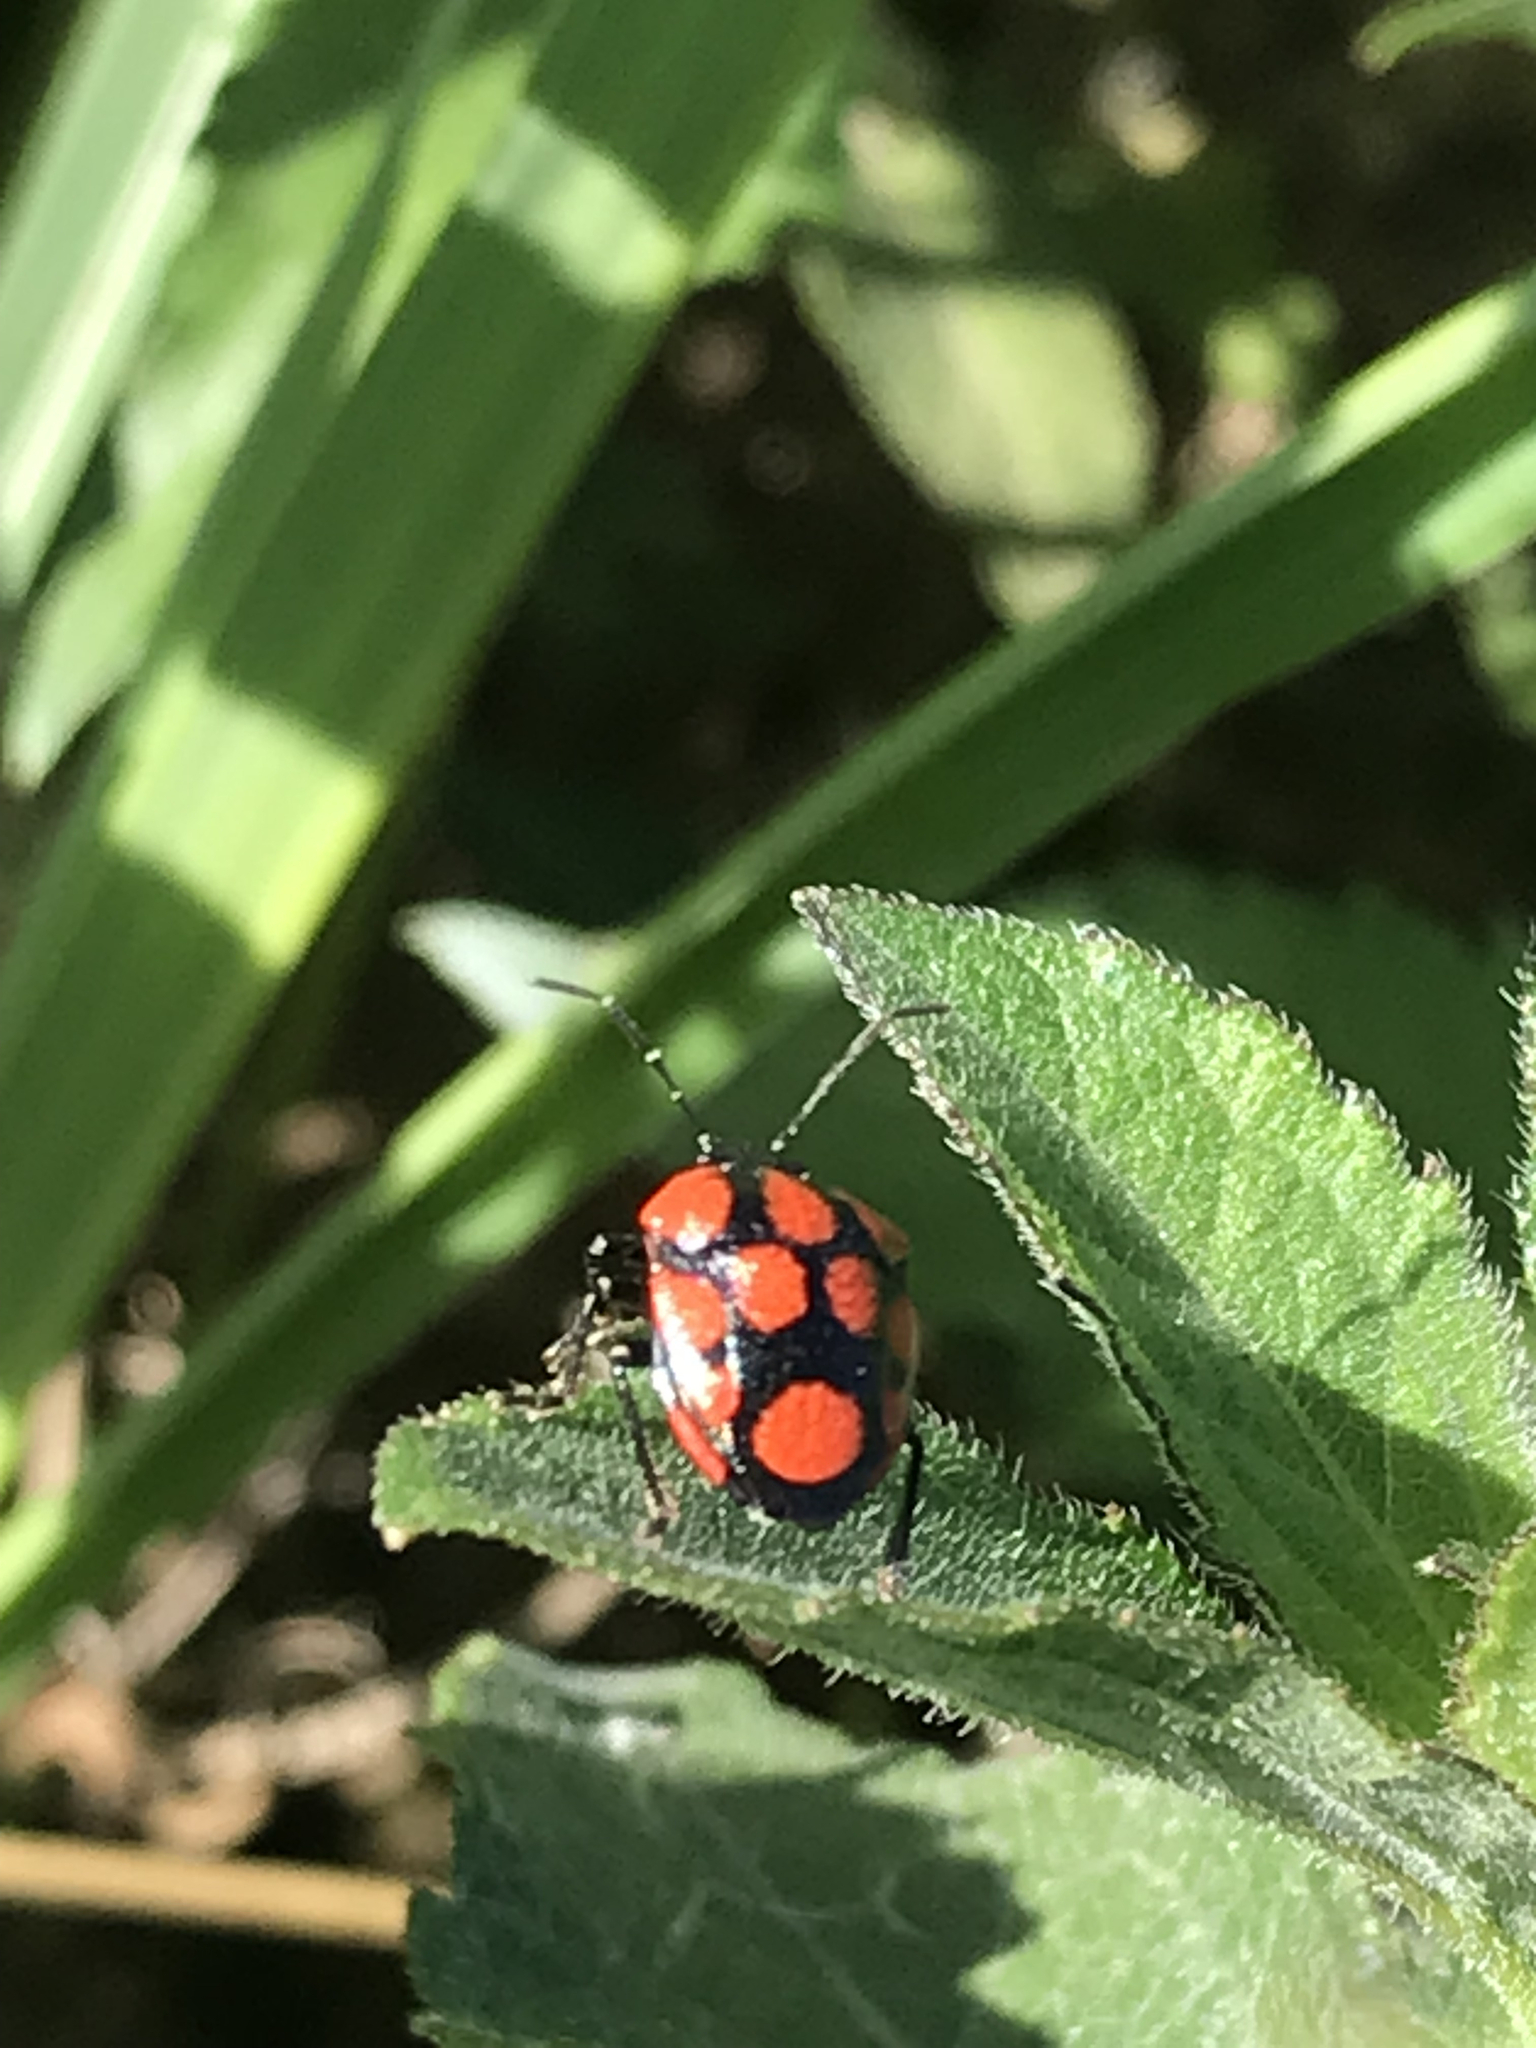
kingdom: Animalia
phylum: Arthropoda
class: Insecta
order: Hemiptera
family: Pentatomidae
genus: Stiretrus
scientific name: Stiretrus
